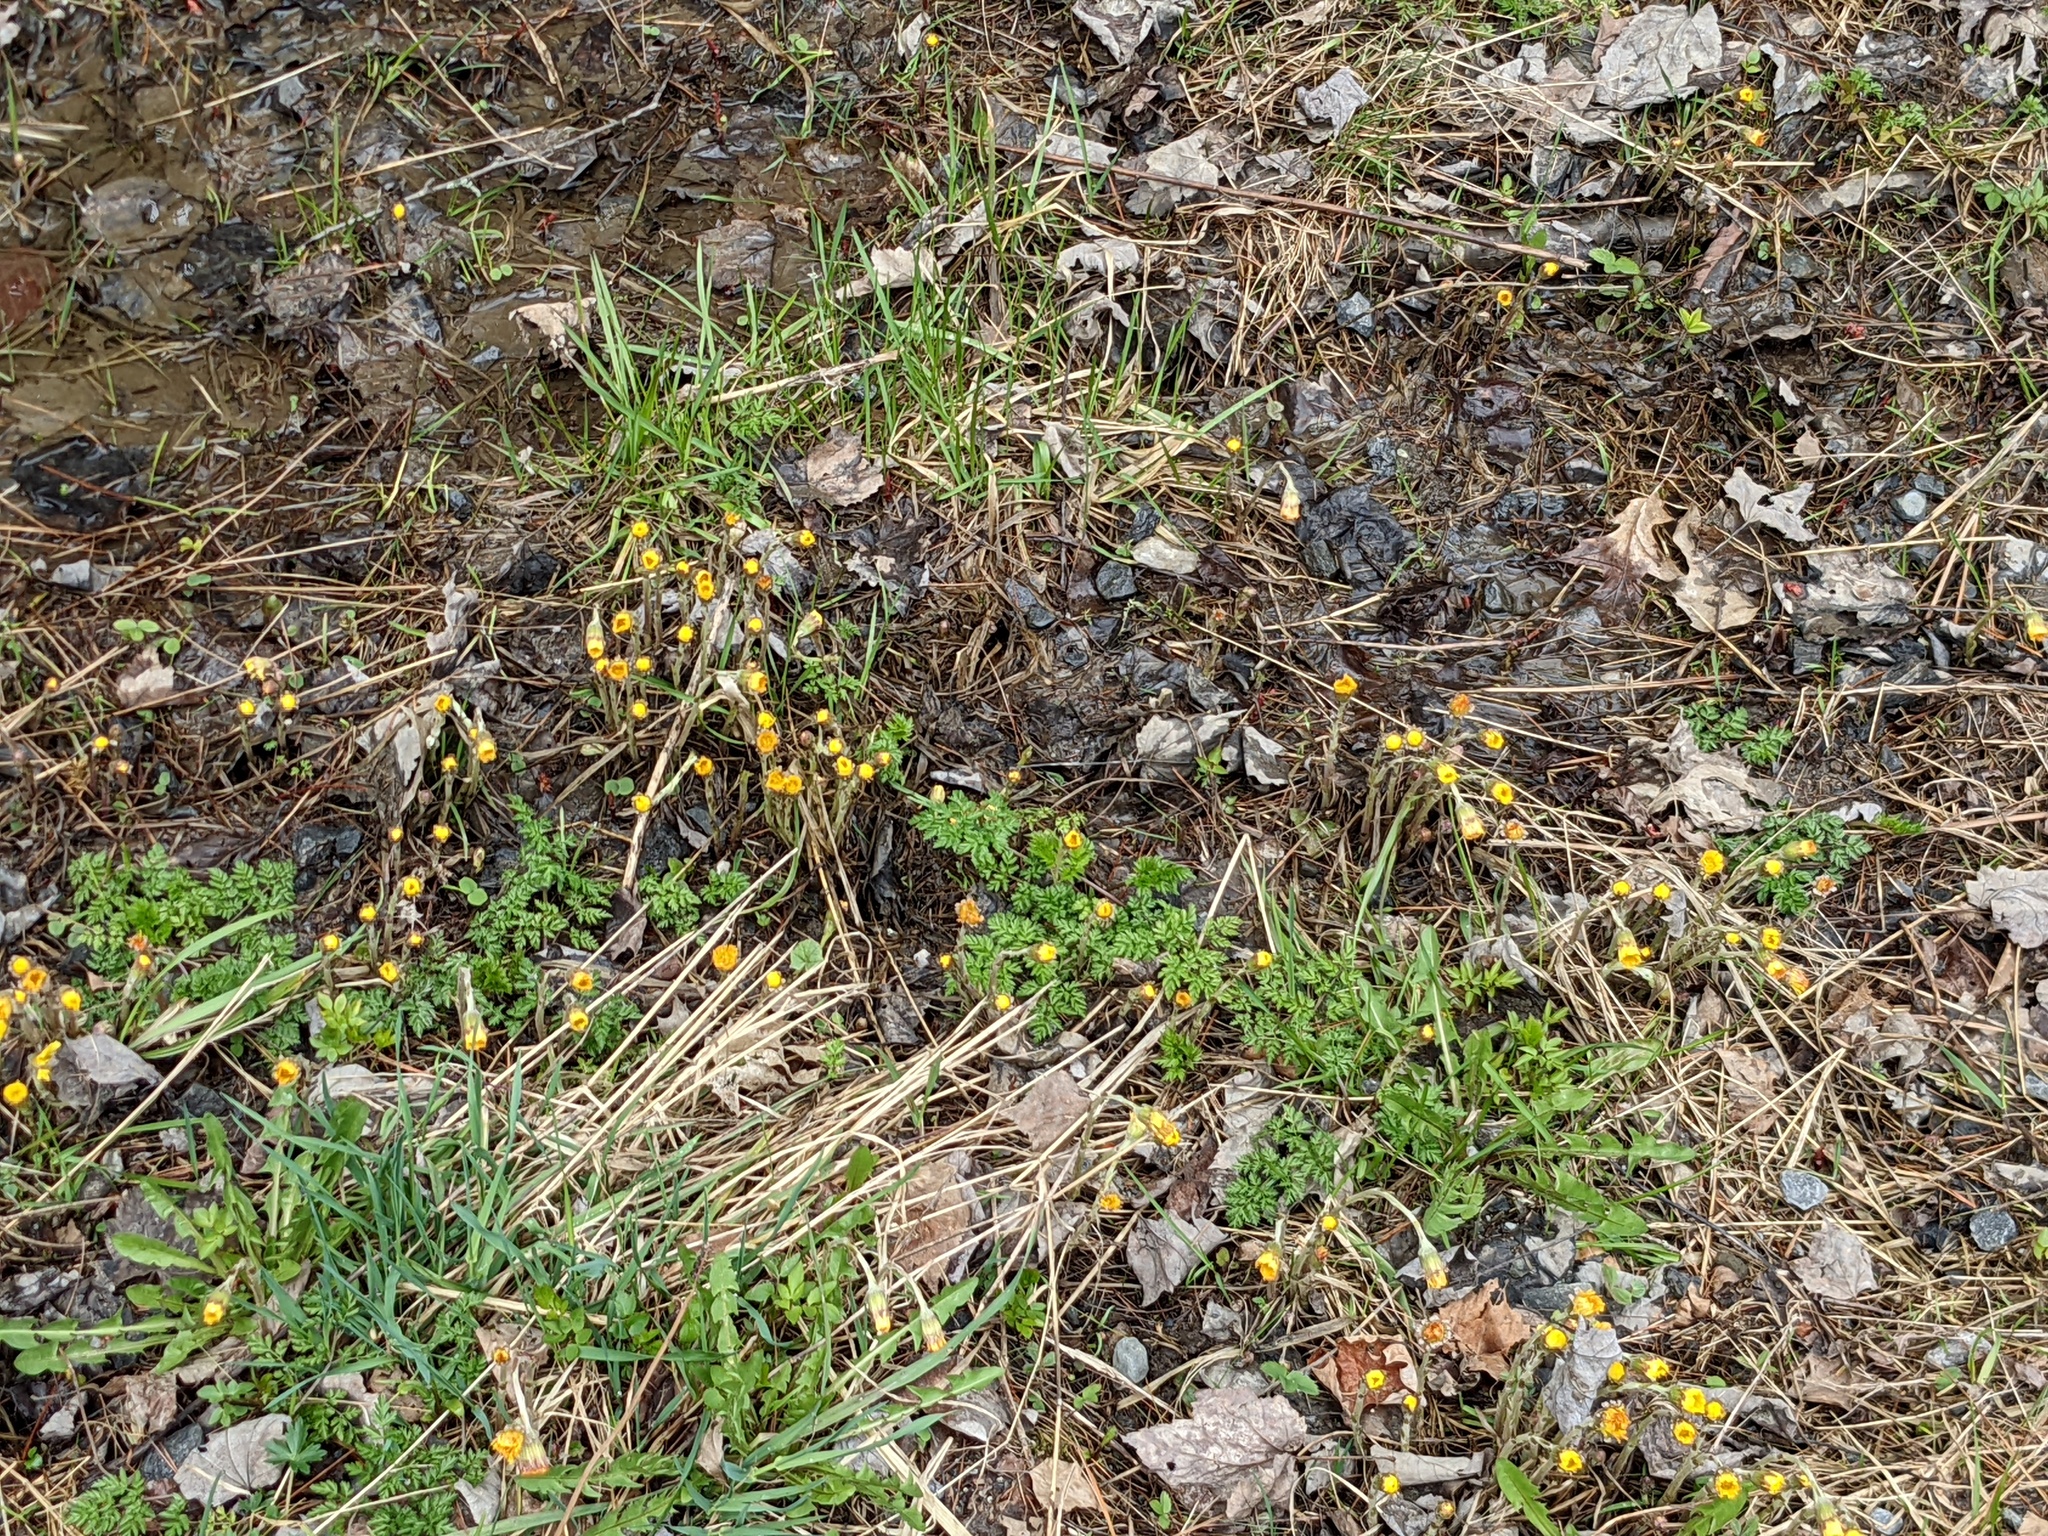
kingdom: Plantae
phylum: Tracheophyta
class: Magnoliopsida
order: Asterales
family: Asteraceae
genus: Tussilago
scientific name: Tussilago farfara
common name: Coltsfoot
